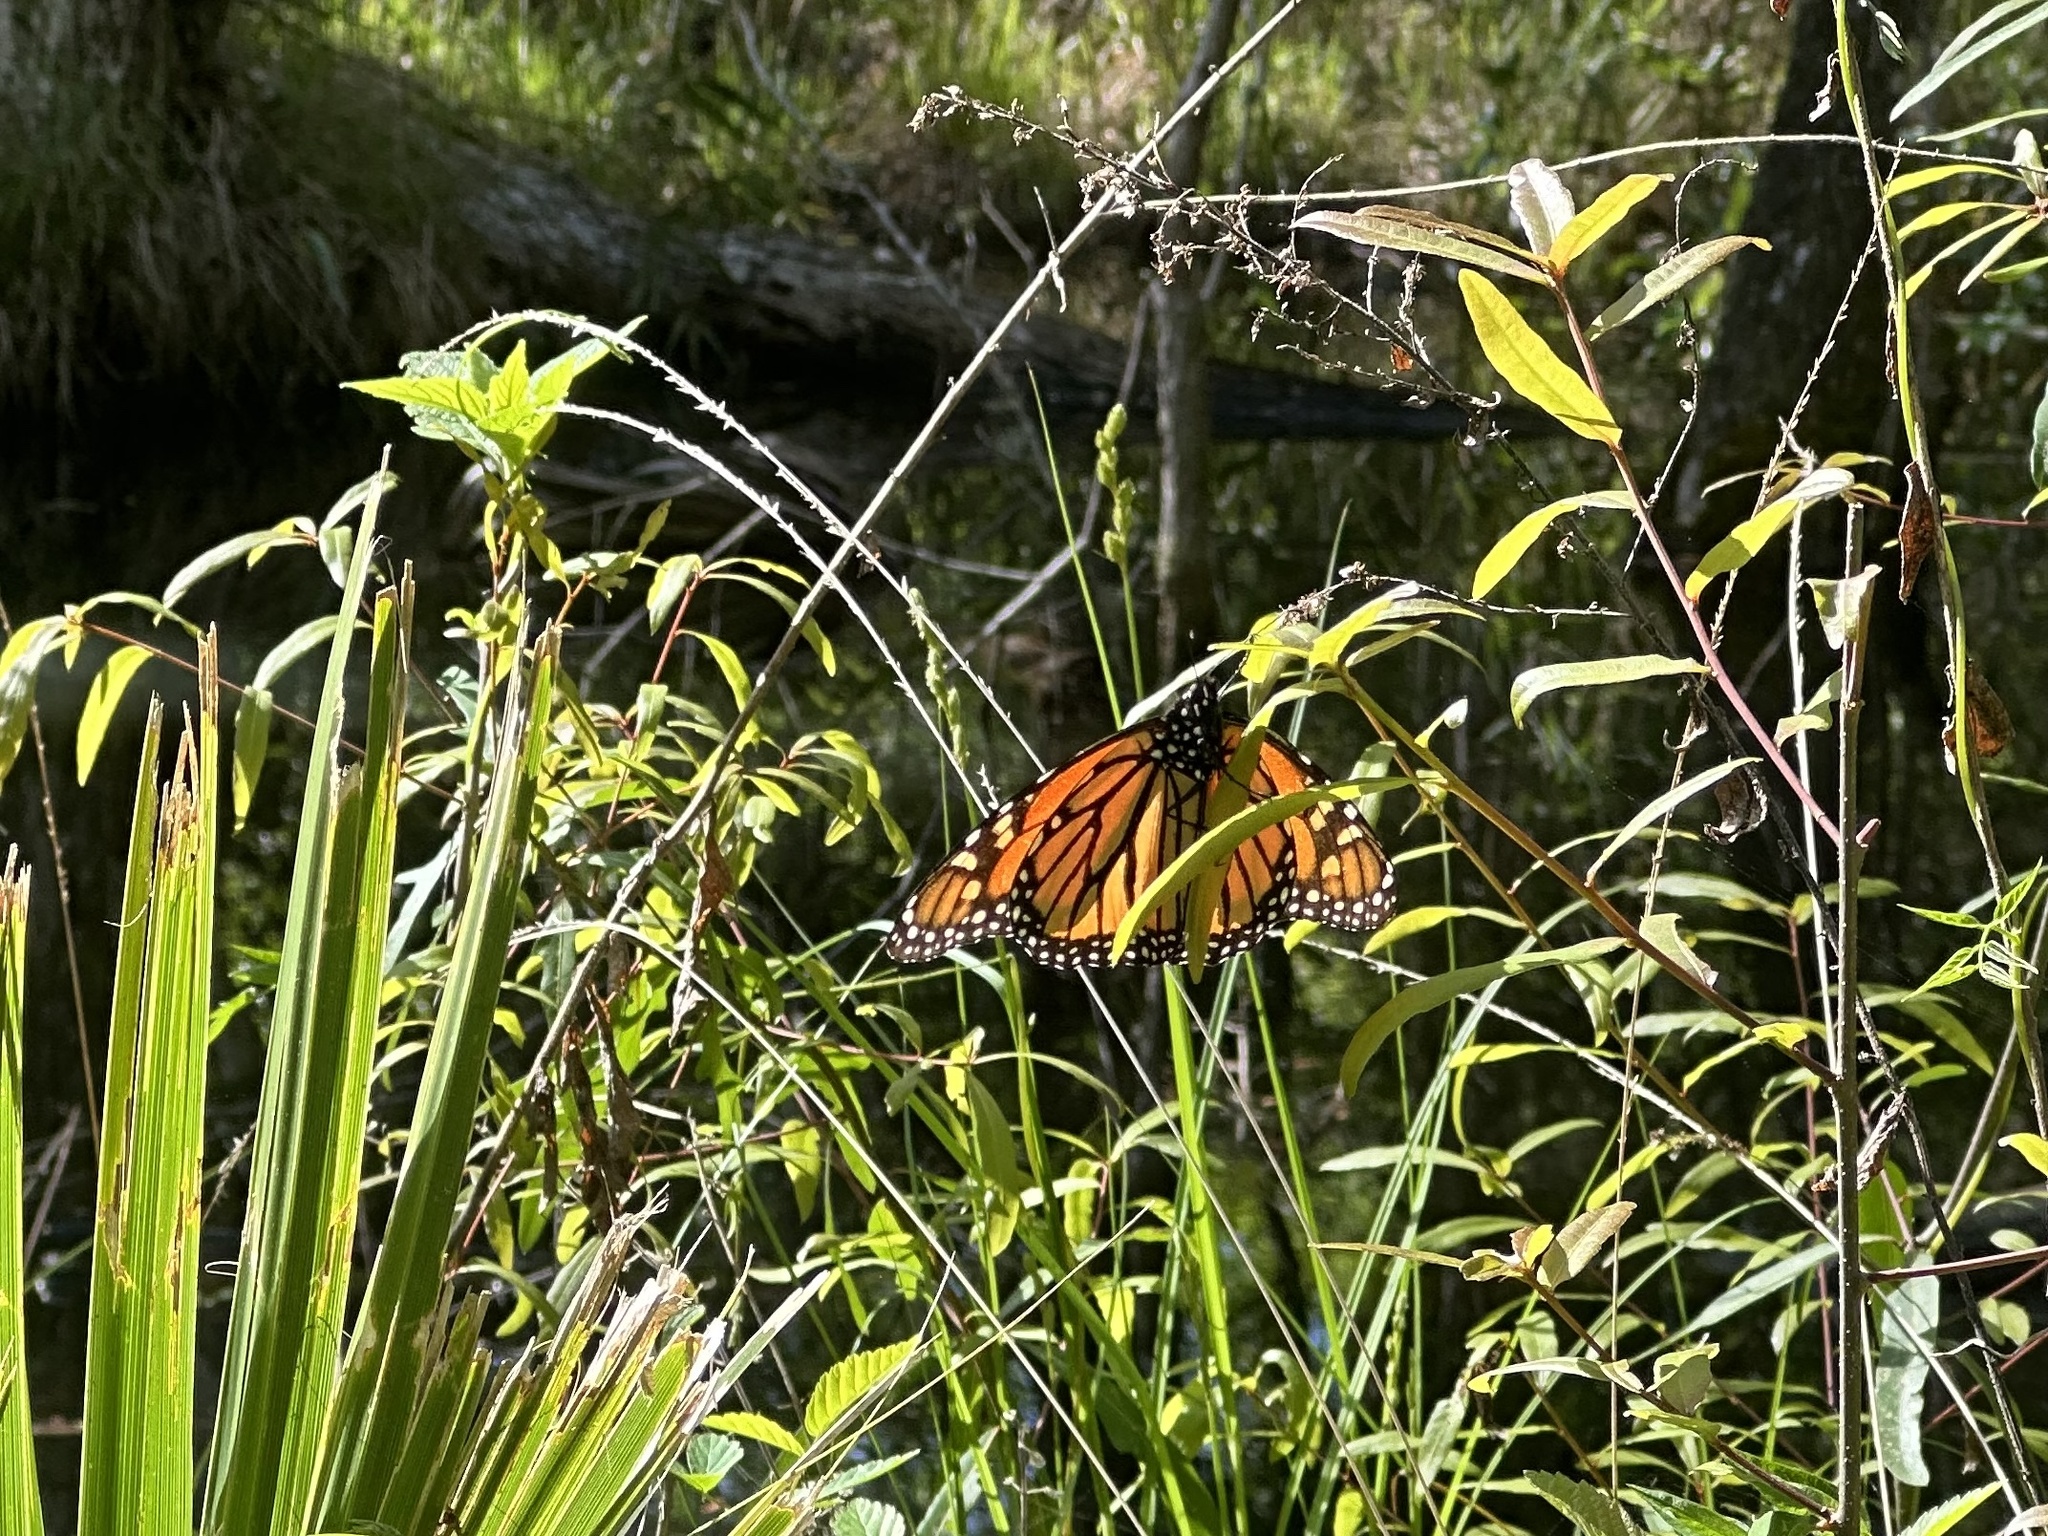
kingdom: Animalia
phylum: Arthropoda
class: Insecta
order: Lepidoptera
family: Nymphalidae
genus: Danaus
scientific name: Danaus plexippus
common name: Monarch
